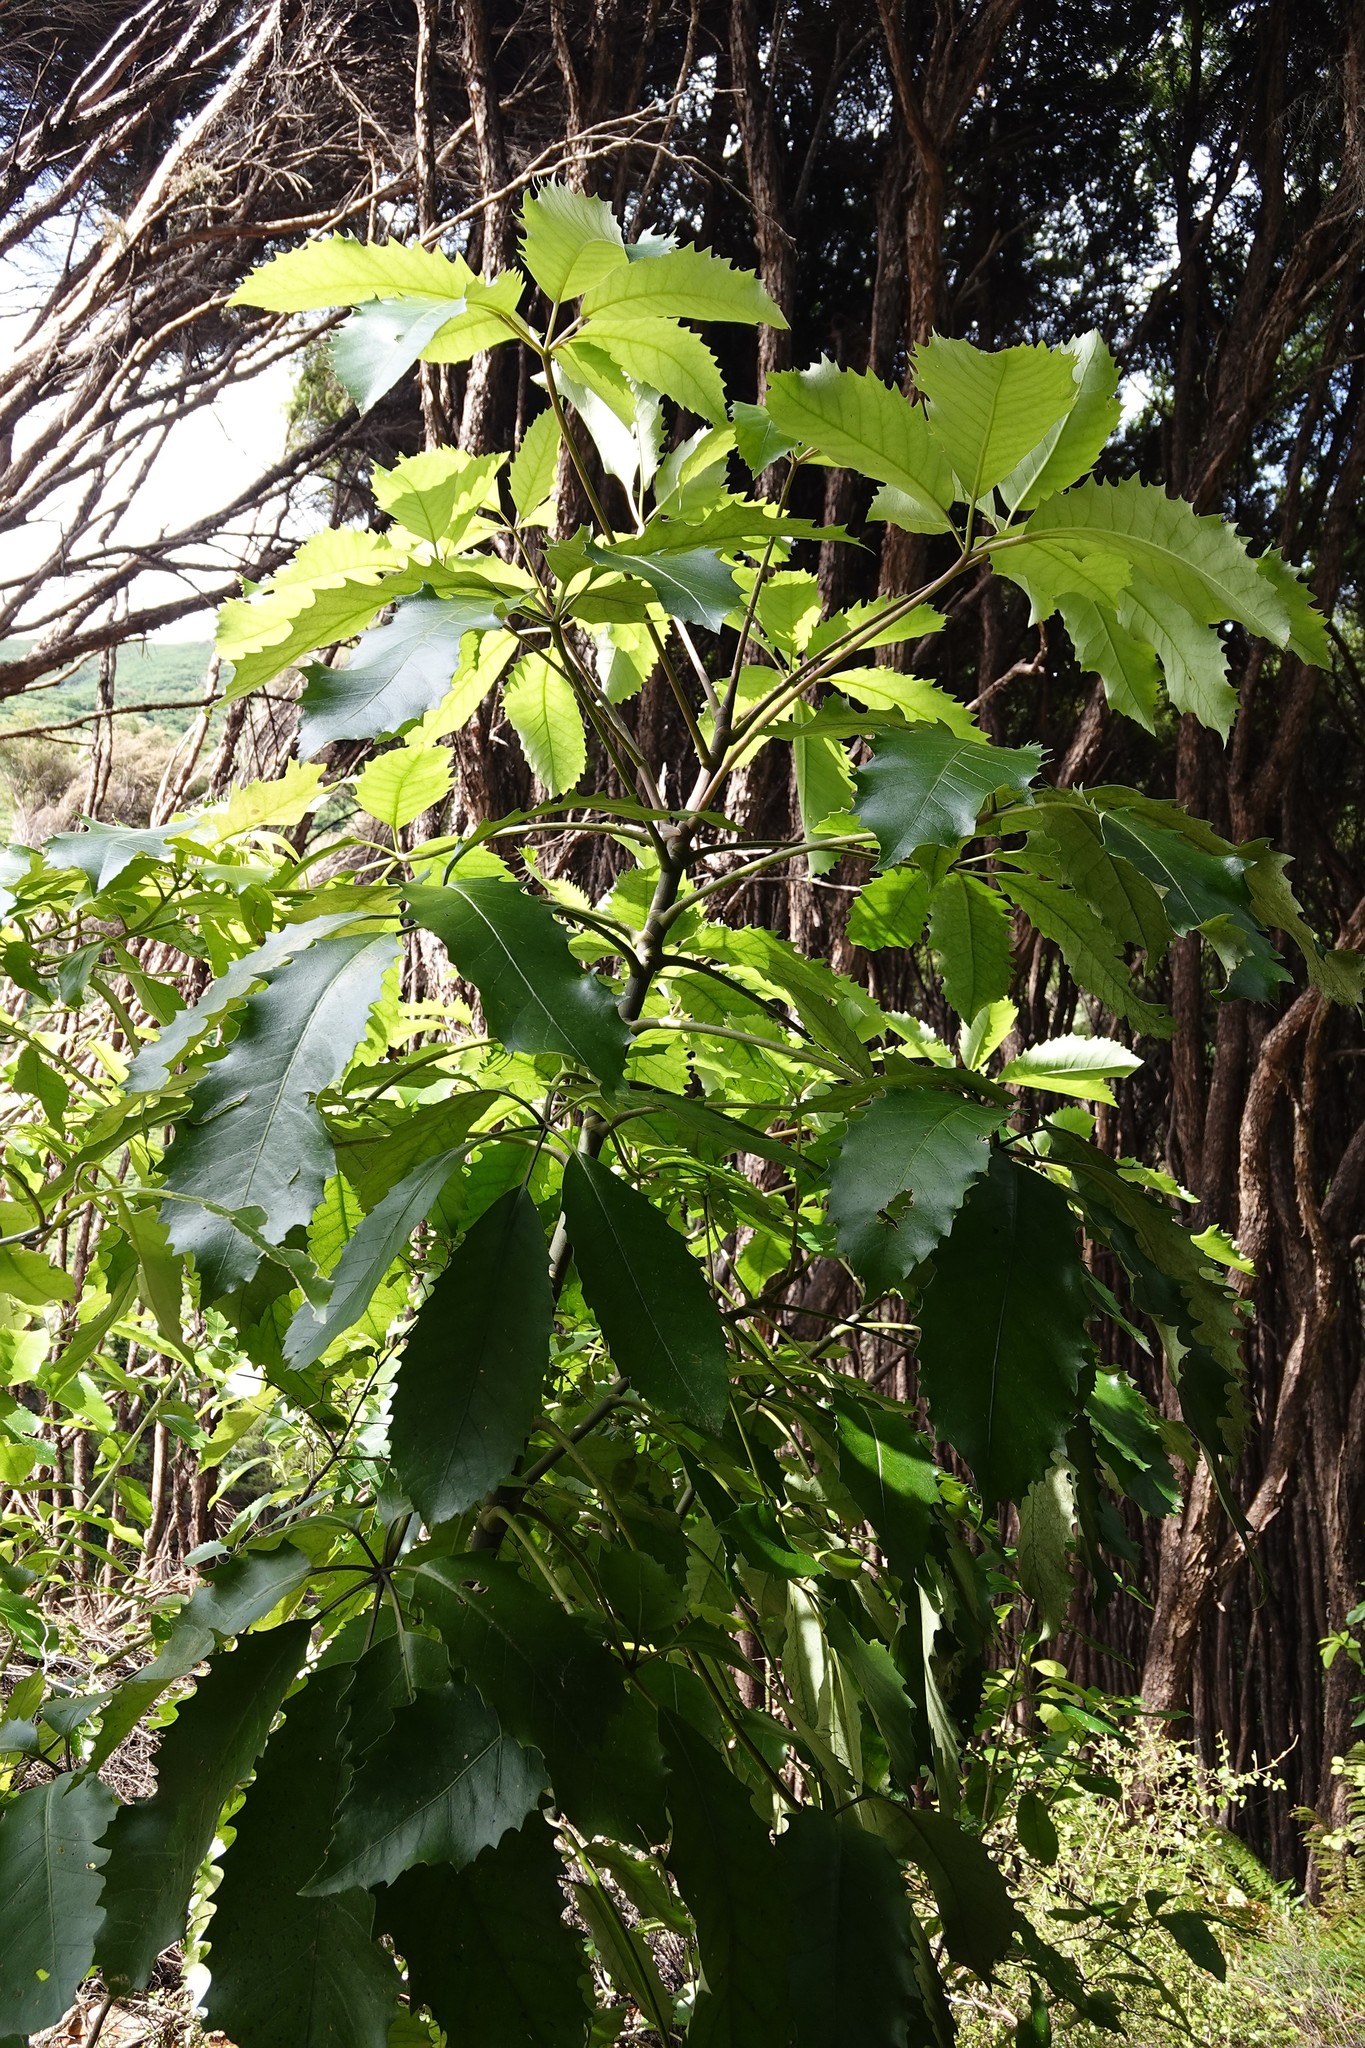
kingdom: Plantae
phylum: Tracheophyta
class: Magnoliopsida
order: Apiales
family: Araliaceae
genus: Neopanax
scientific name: Neopanax arboreus
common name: Five-fingers
